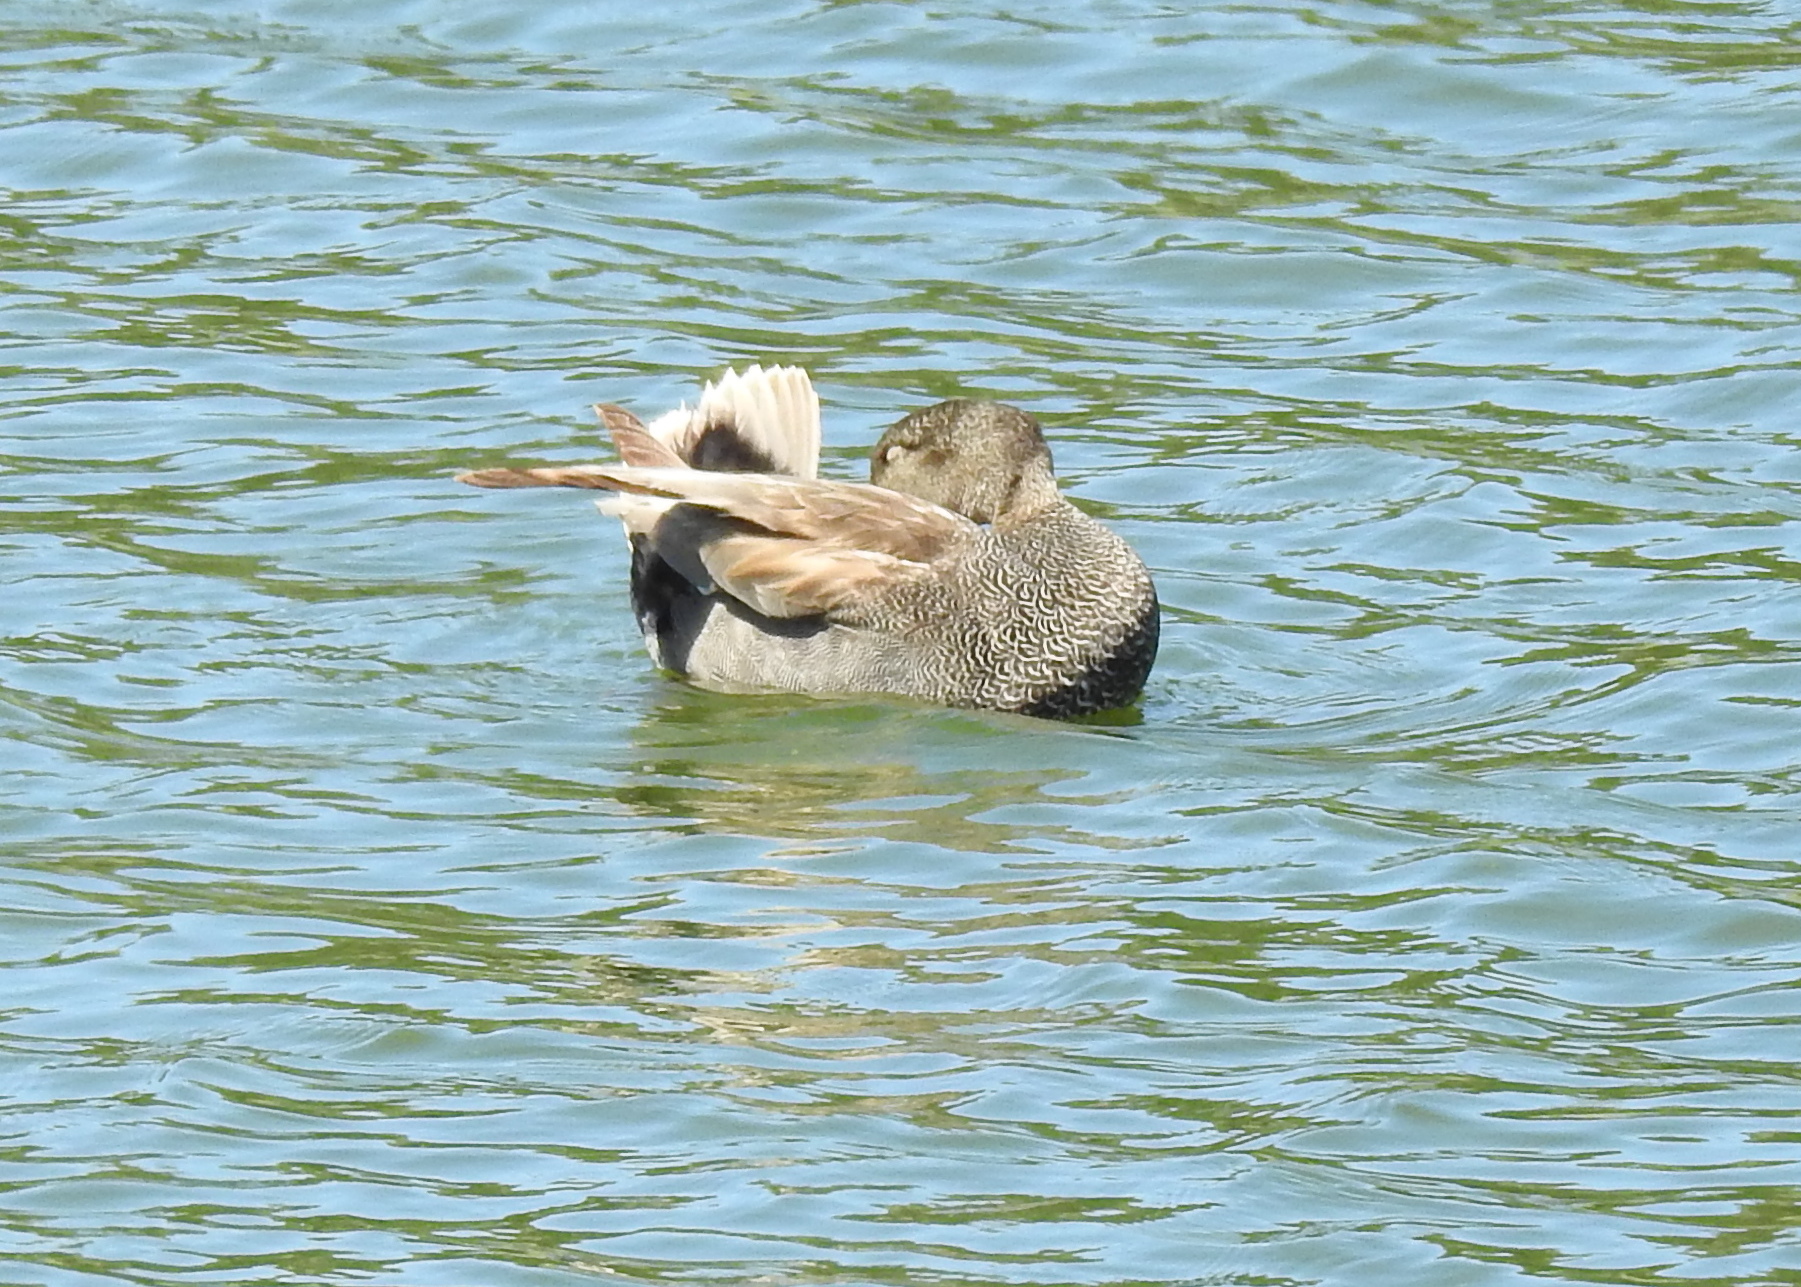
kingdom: Animalia
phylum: Chordata
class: Aves
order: Anseriformes
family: Anatidae
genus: Mareca
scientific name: Mareca strepera
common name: Gadwall
